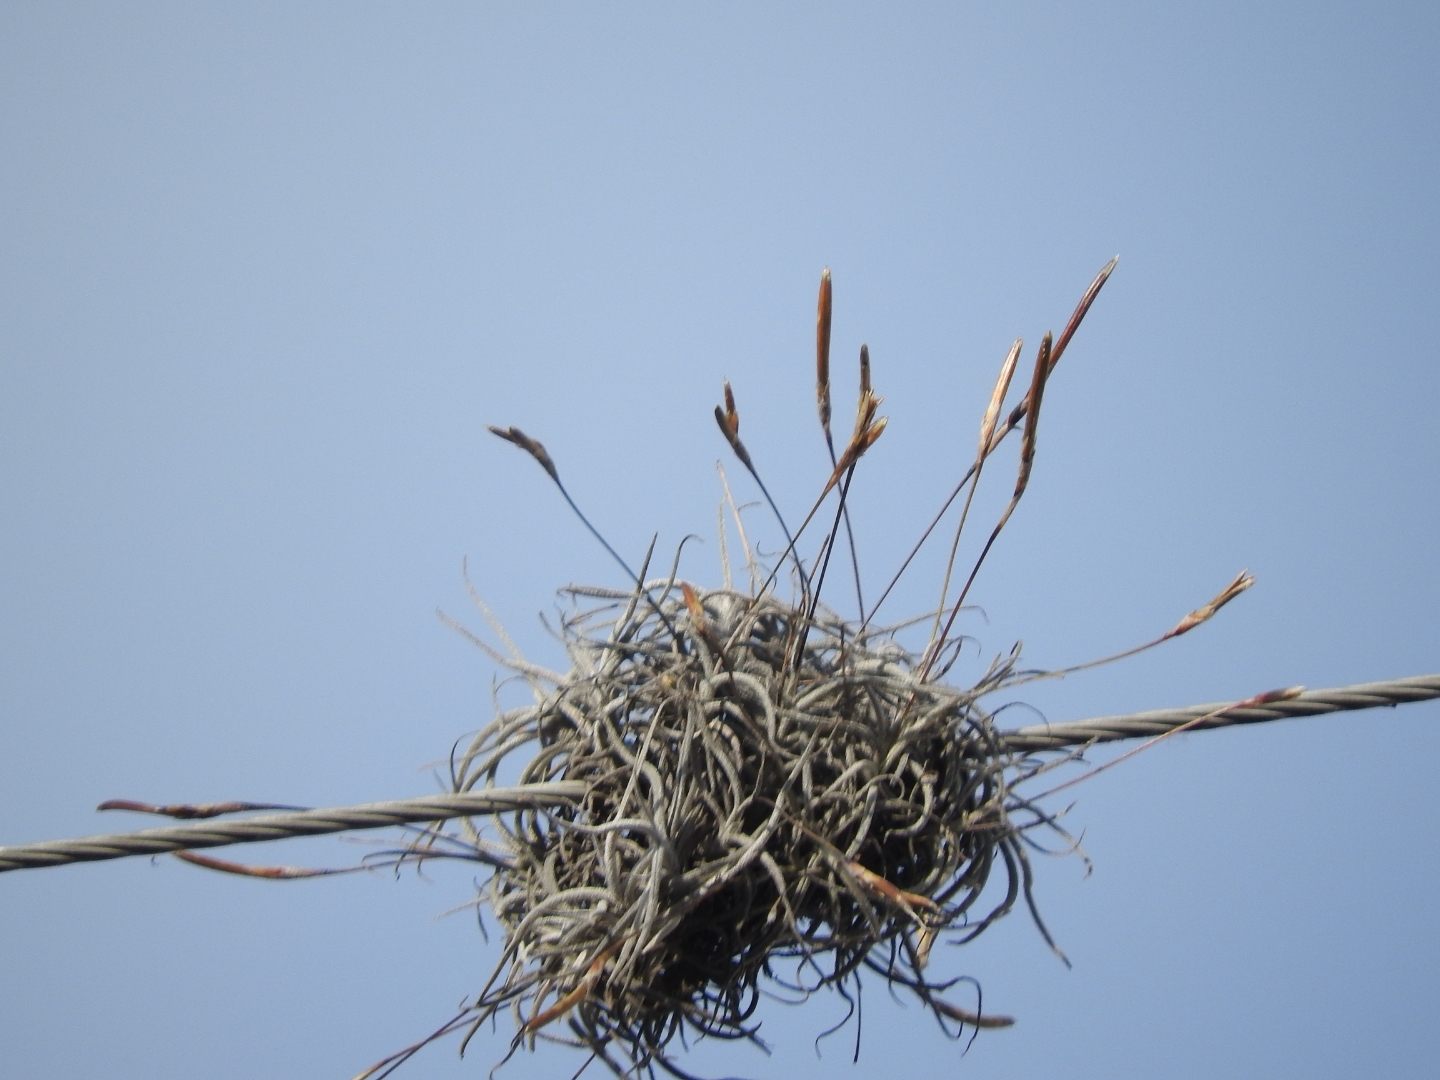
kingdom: Plantae
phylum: Tracheophyta
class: Liliopsida
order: Poales
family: Bromeliaceae
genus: Tillandsia
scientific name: Tillandsia recurvata
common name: Small ballmoss
